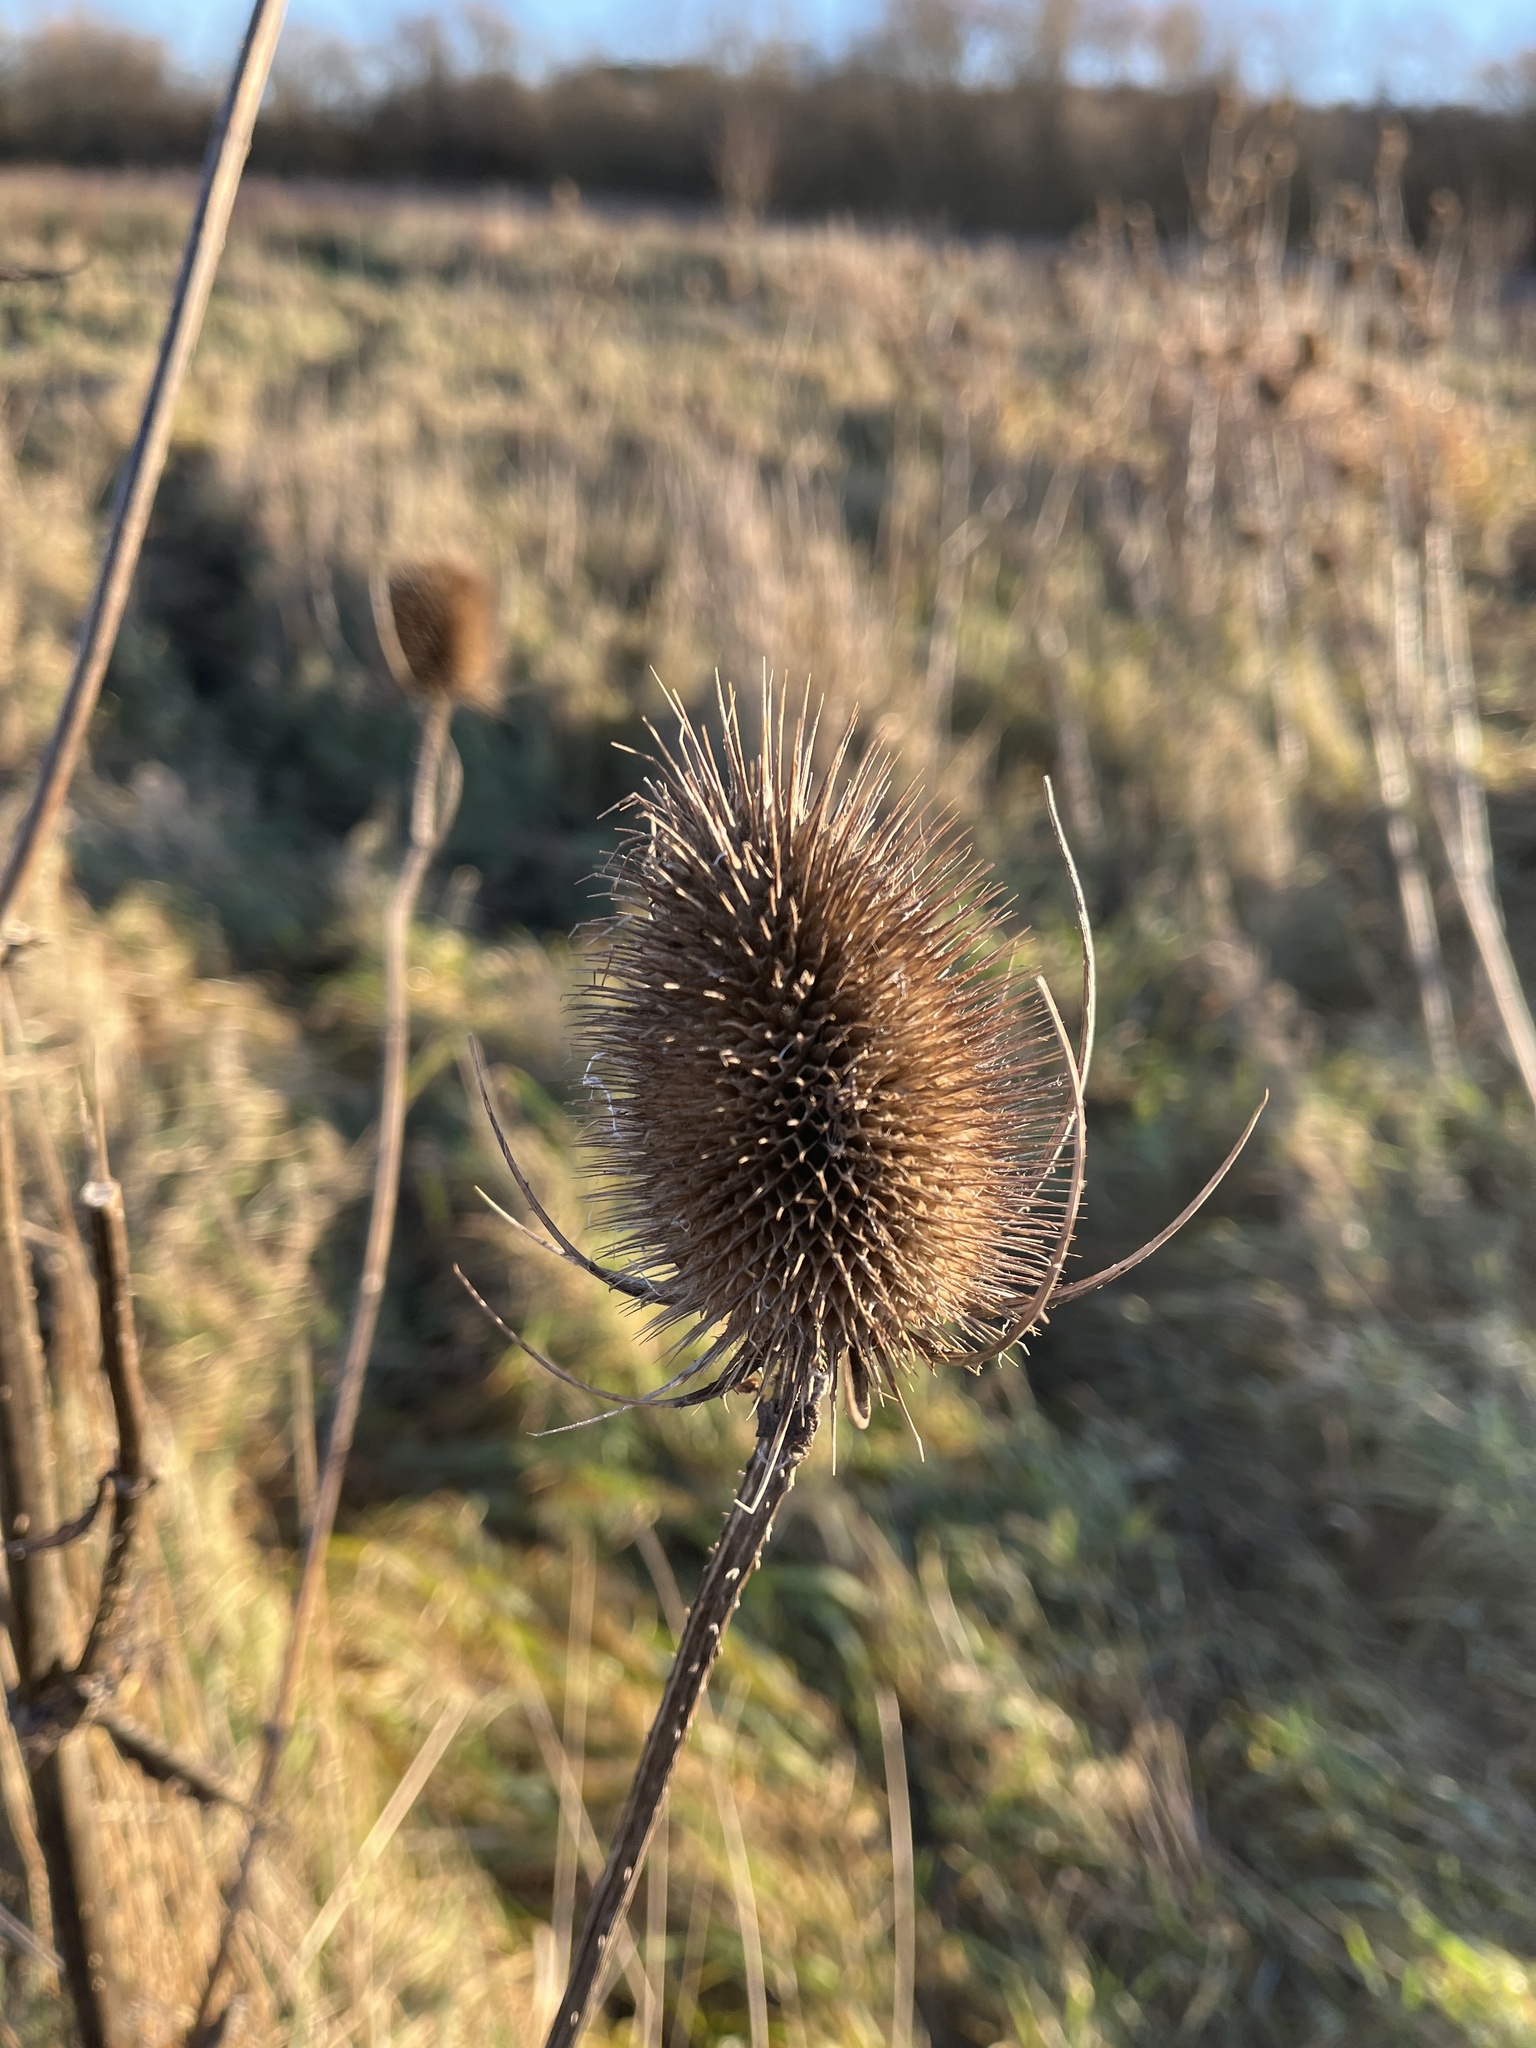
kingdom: Plantae
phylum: Tracheophyta
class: Magnoliopsida
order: Dipsacales
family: Caprifoliaceae
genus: Dipsacus
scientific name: Dipsacus fullonum
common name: Teasel
